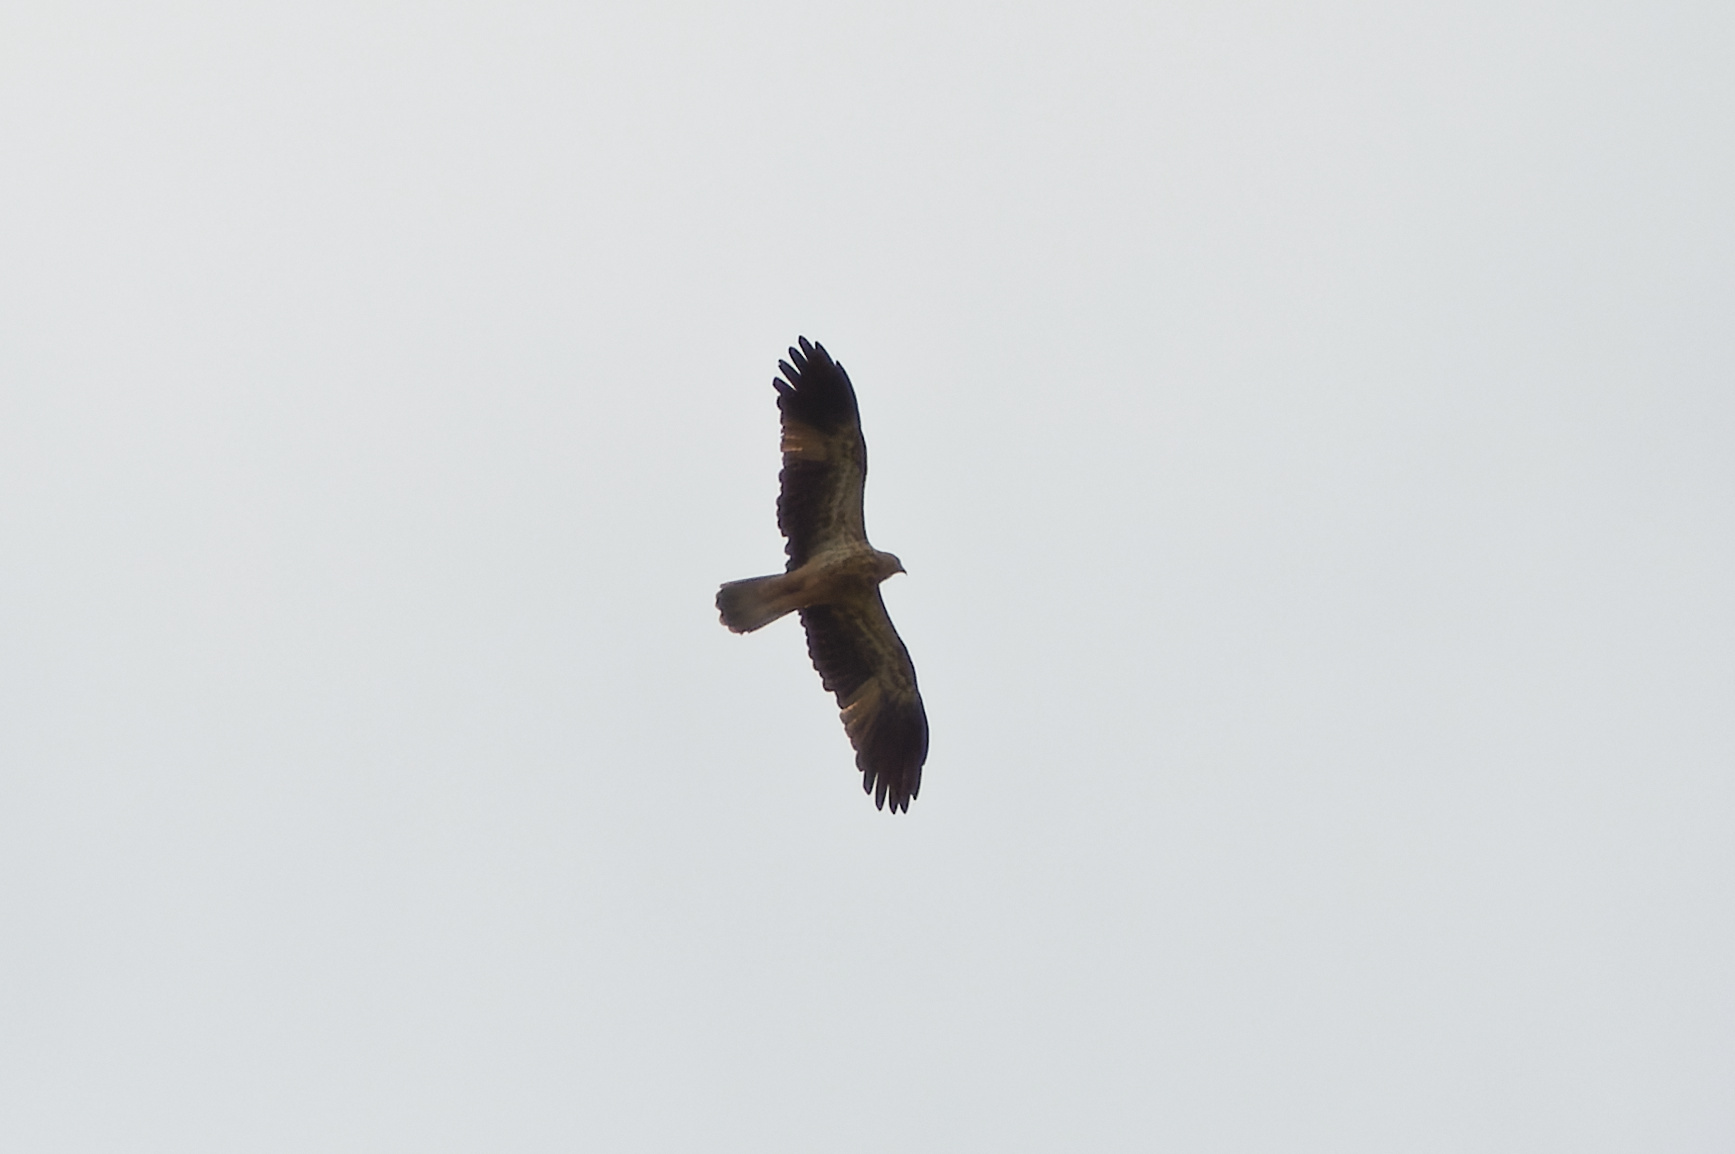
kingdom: Animalia
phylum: Chordata
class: Aves
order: Accipitriformes
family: Accipitridae
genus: Haliastur
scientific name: Haliastur sphenurus
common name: Whistling kite
